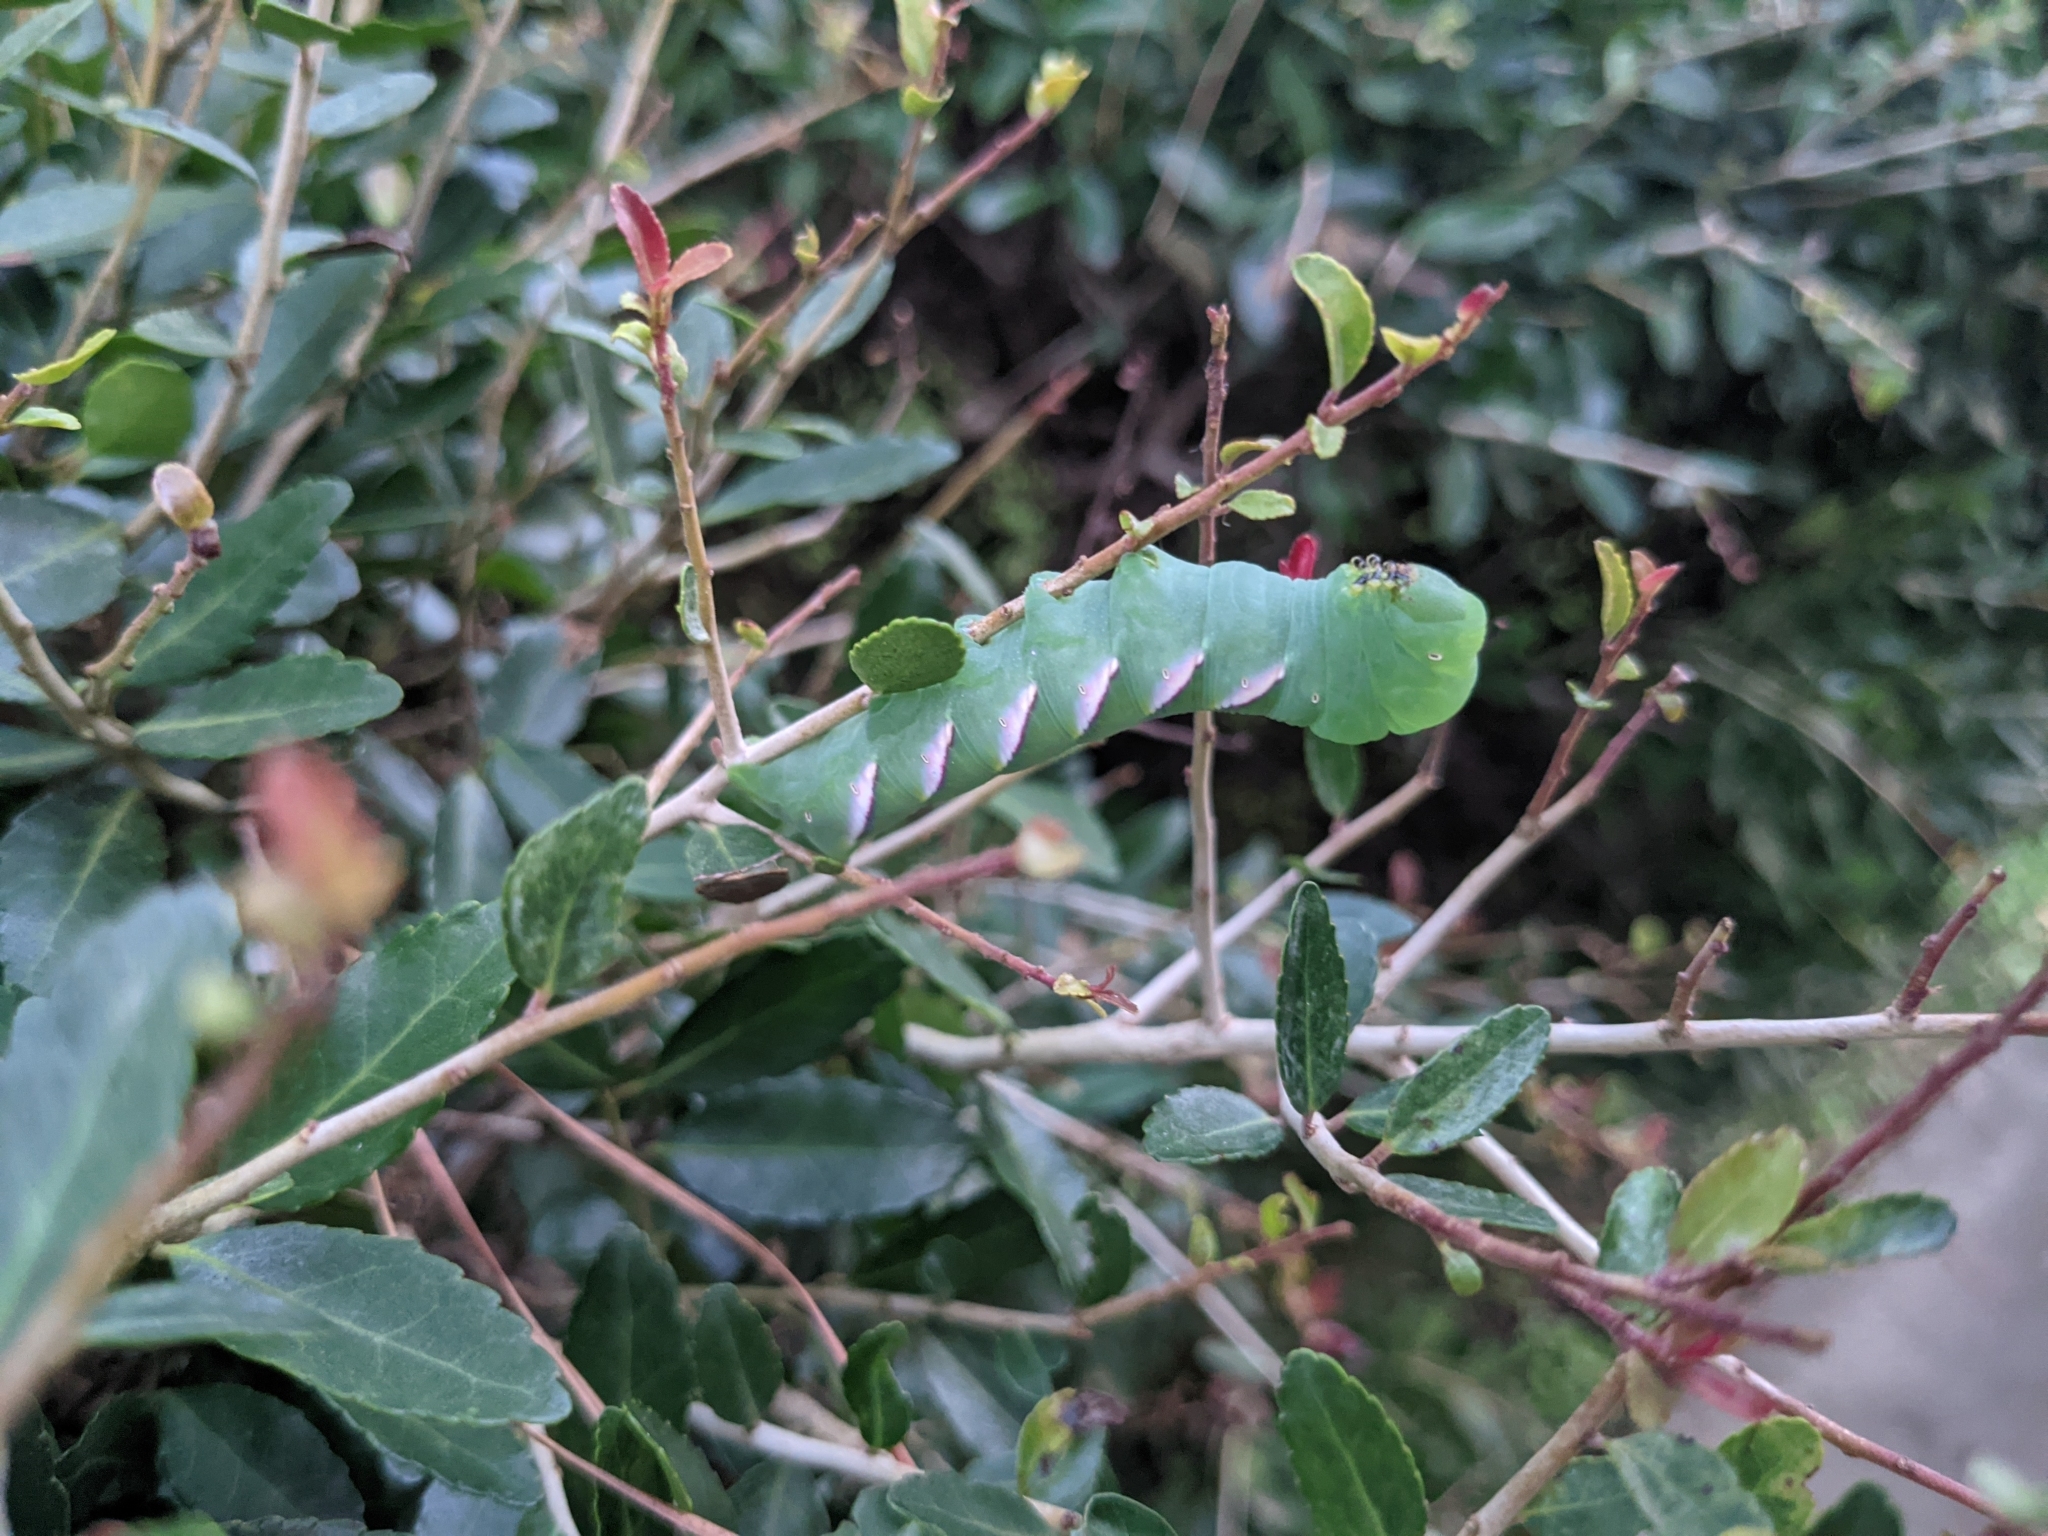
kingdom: Animalia
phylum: Arthropoda
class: Insecta
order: Lepidoptera
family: Sphingidae
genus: Dolba
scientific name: Dolba hyloeus
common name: Pawpaw sphinx
